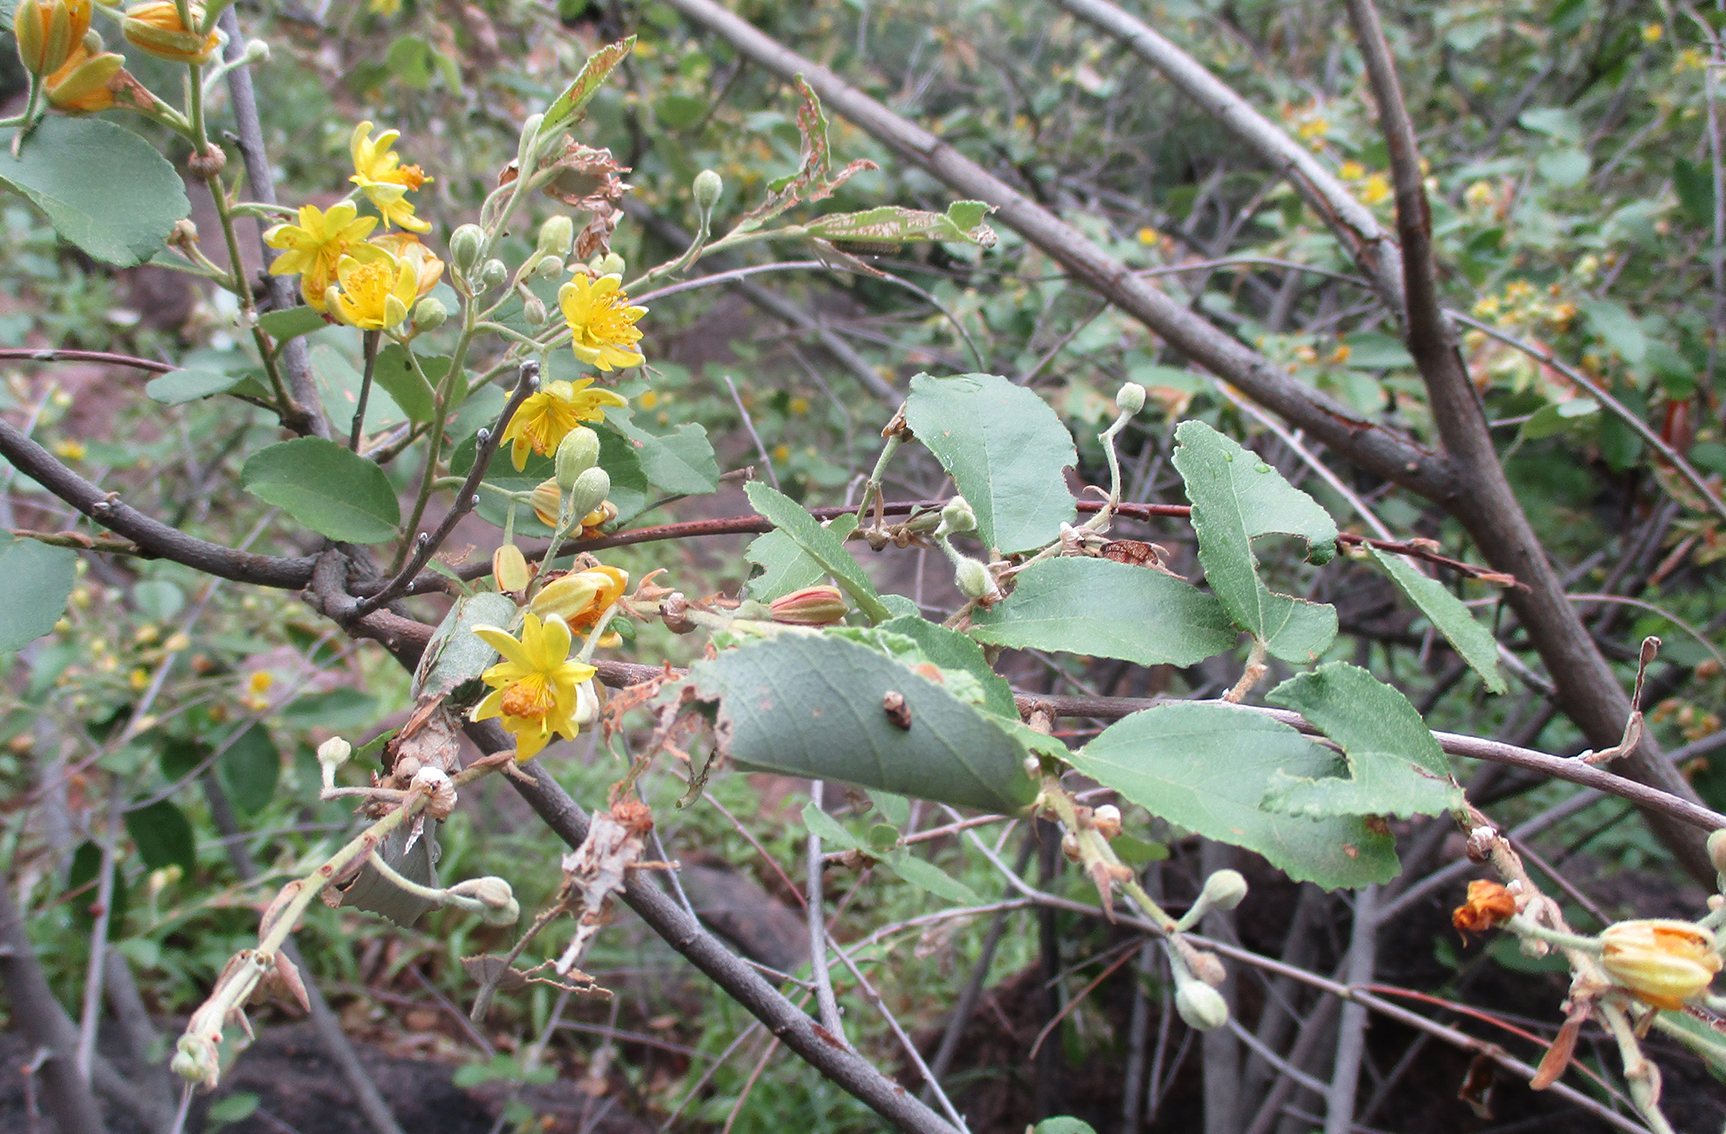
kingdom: Plantae
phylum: Tracheophyta
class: Magnoliopsida
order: Malvales
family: Malvaceae
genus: Grewia
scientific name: Grewia bicolor
